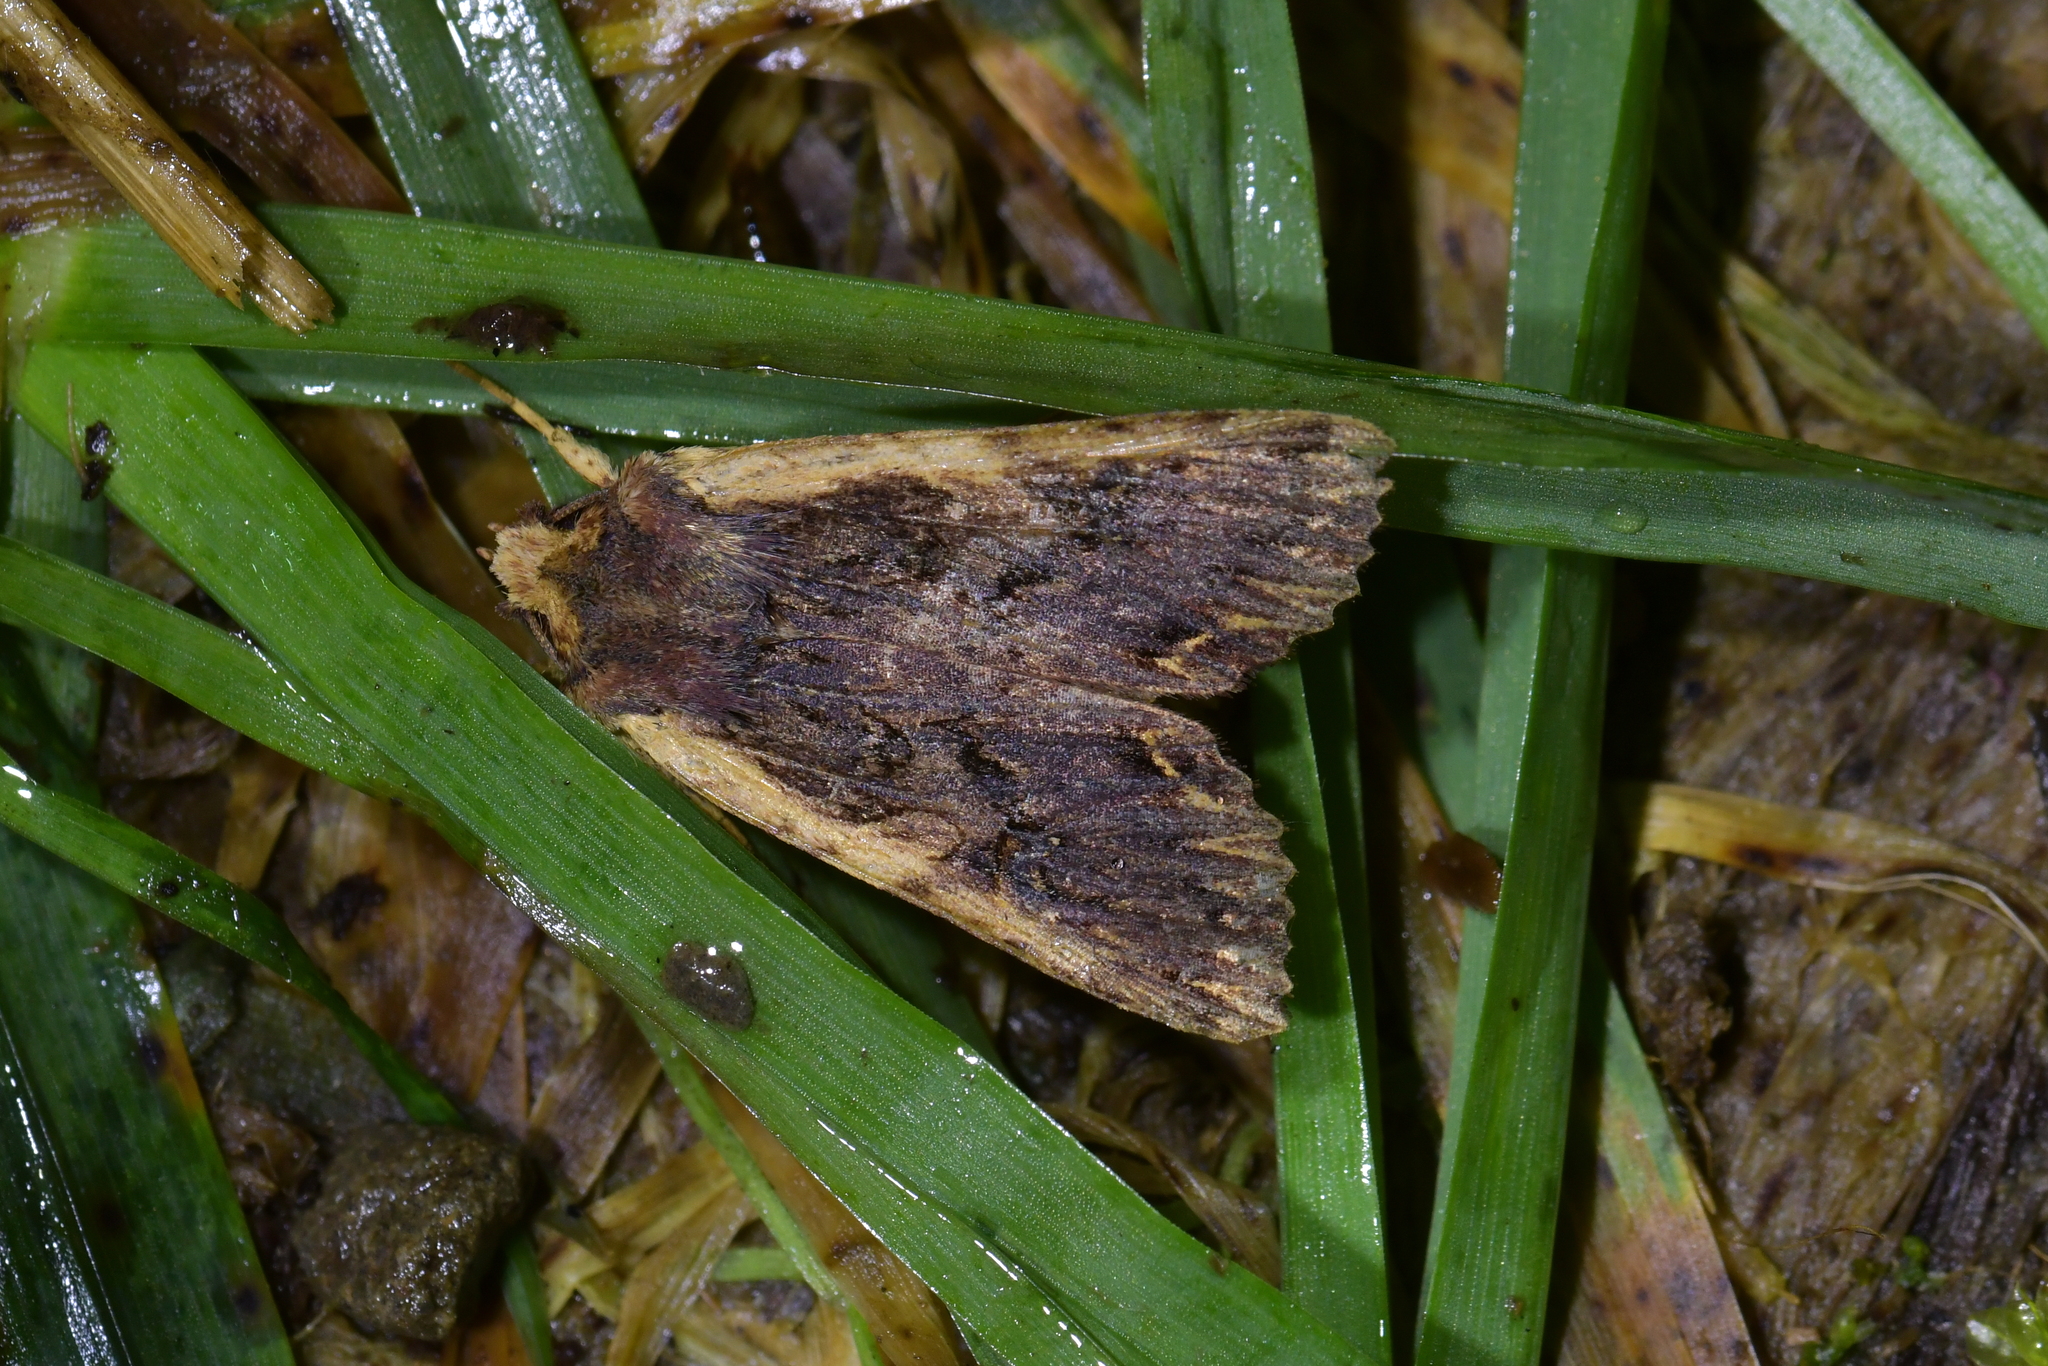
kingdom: Animalia
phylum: Arthropoda
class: Insecta
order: Lepidoptera
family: Noctuidae
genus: Meterana
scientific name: Meterana alcyone
